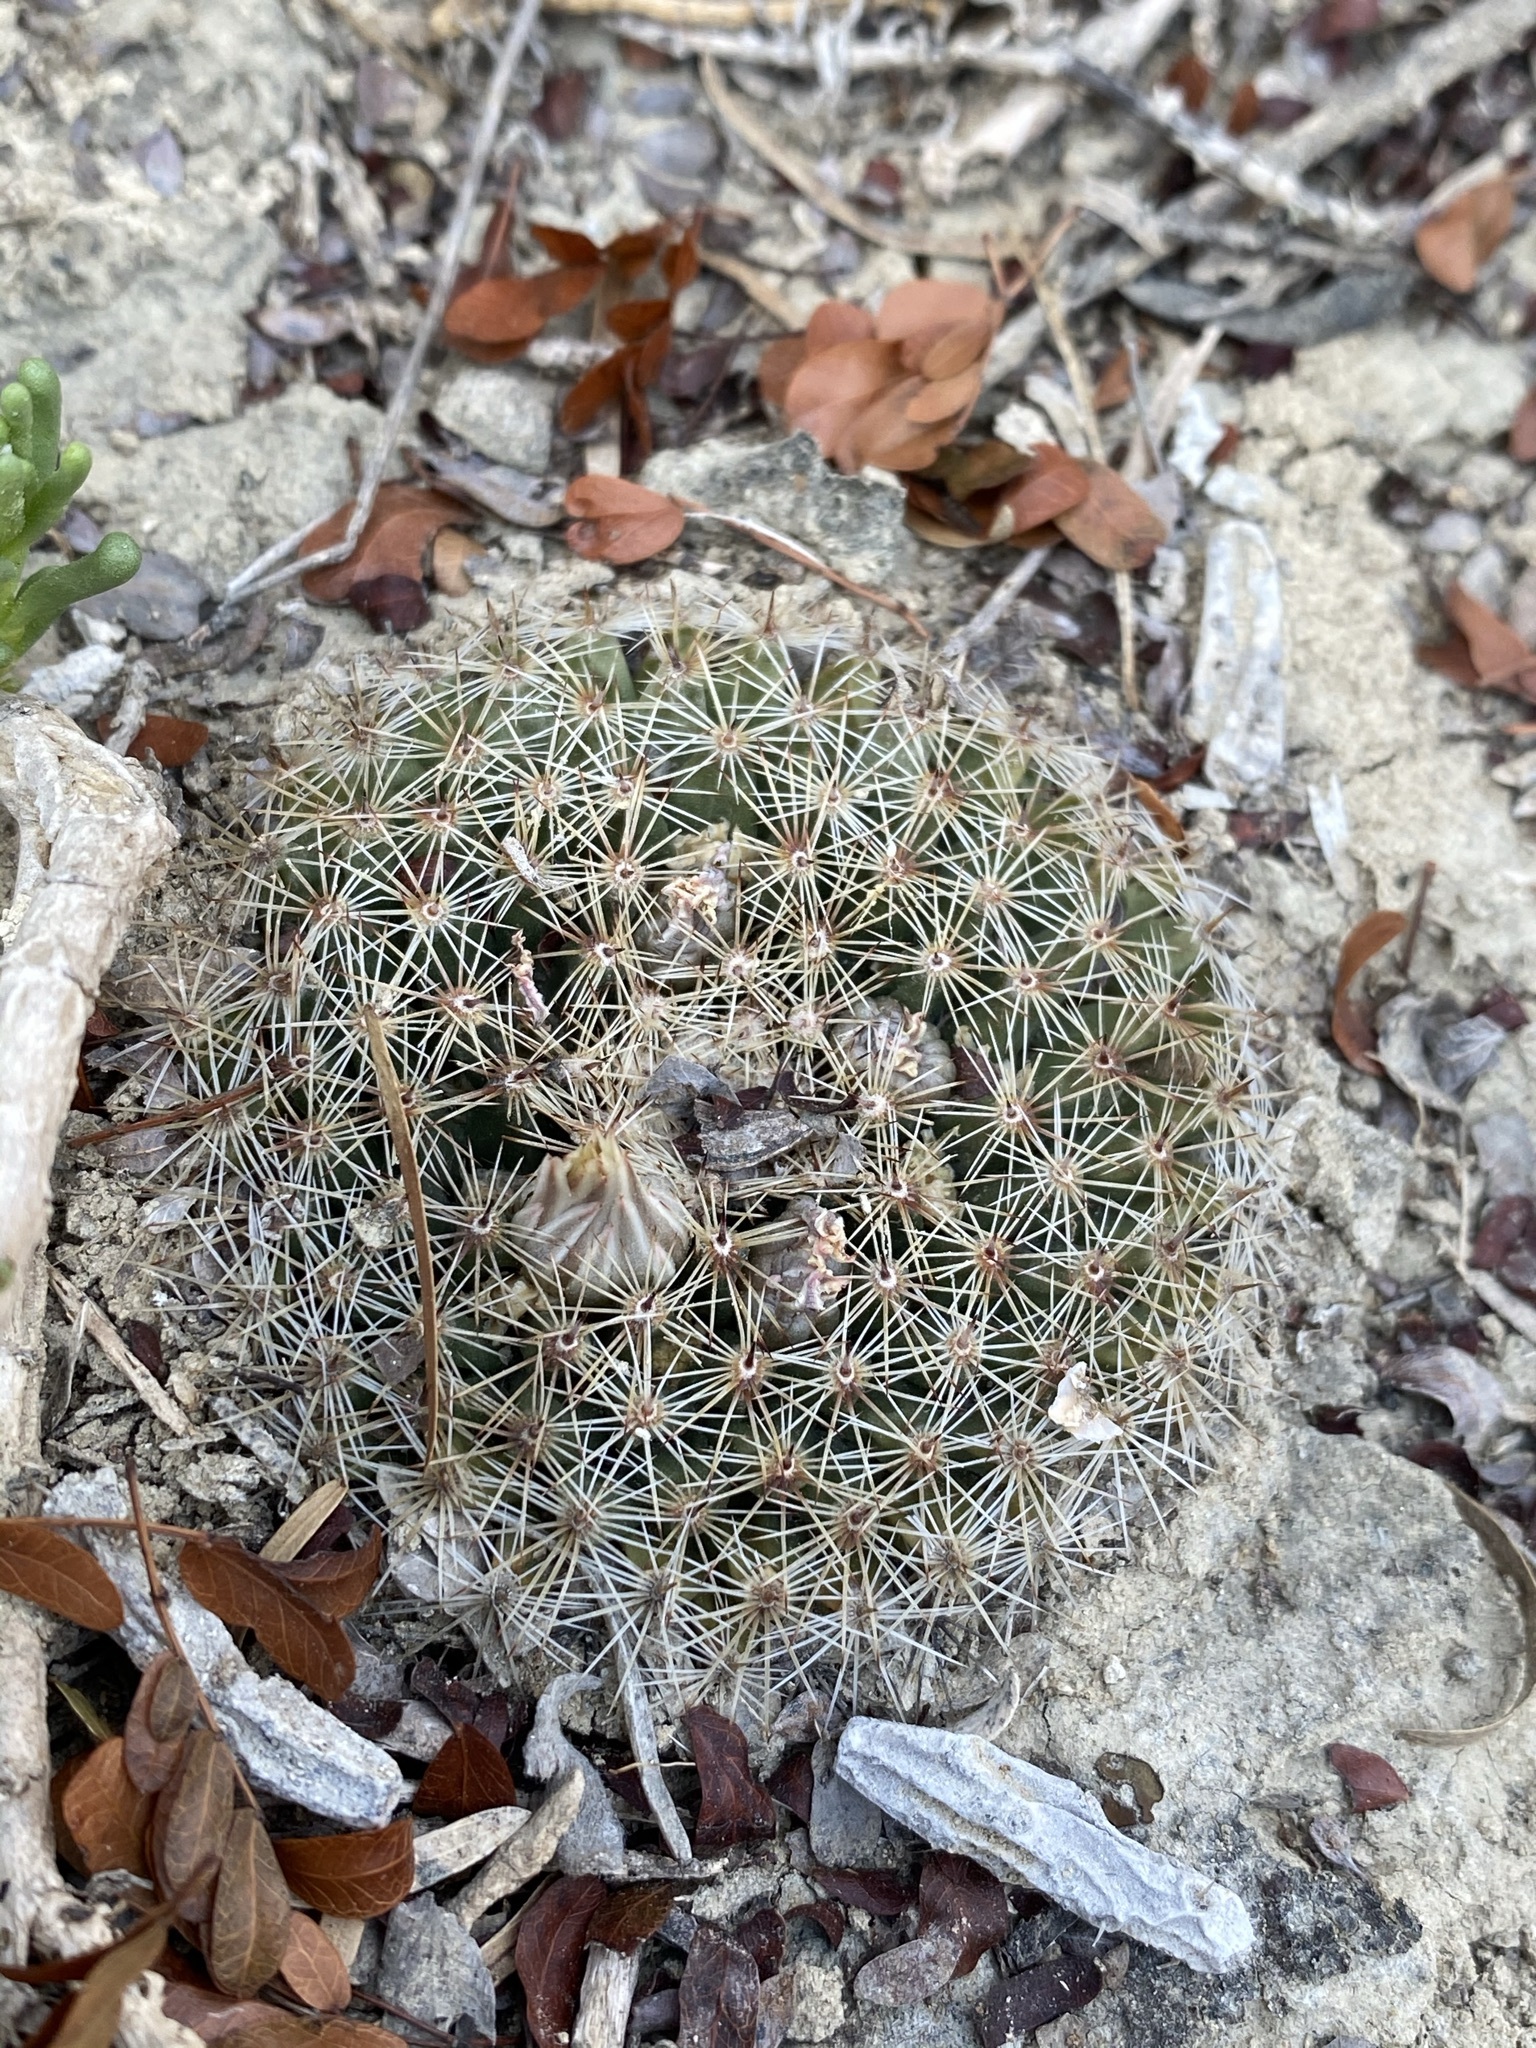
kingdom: Plantae
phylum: Tracheophyta
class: Magnoliopsida
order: Caryophyllales
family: Cactaceae
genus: Mammillaria
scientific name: Mammillaria heyderi
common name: Little nipple cactus
